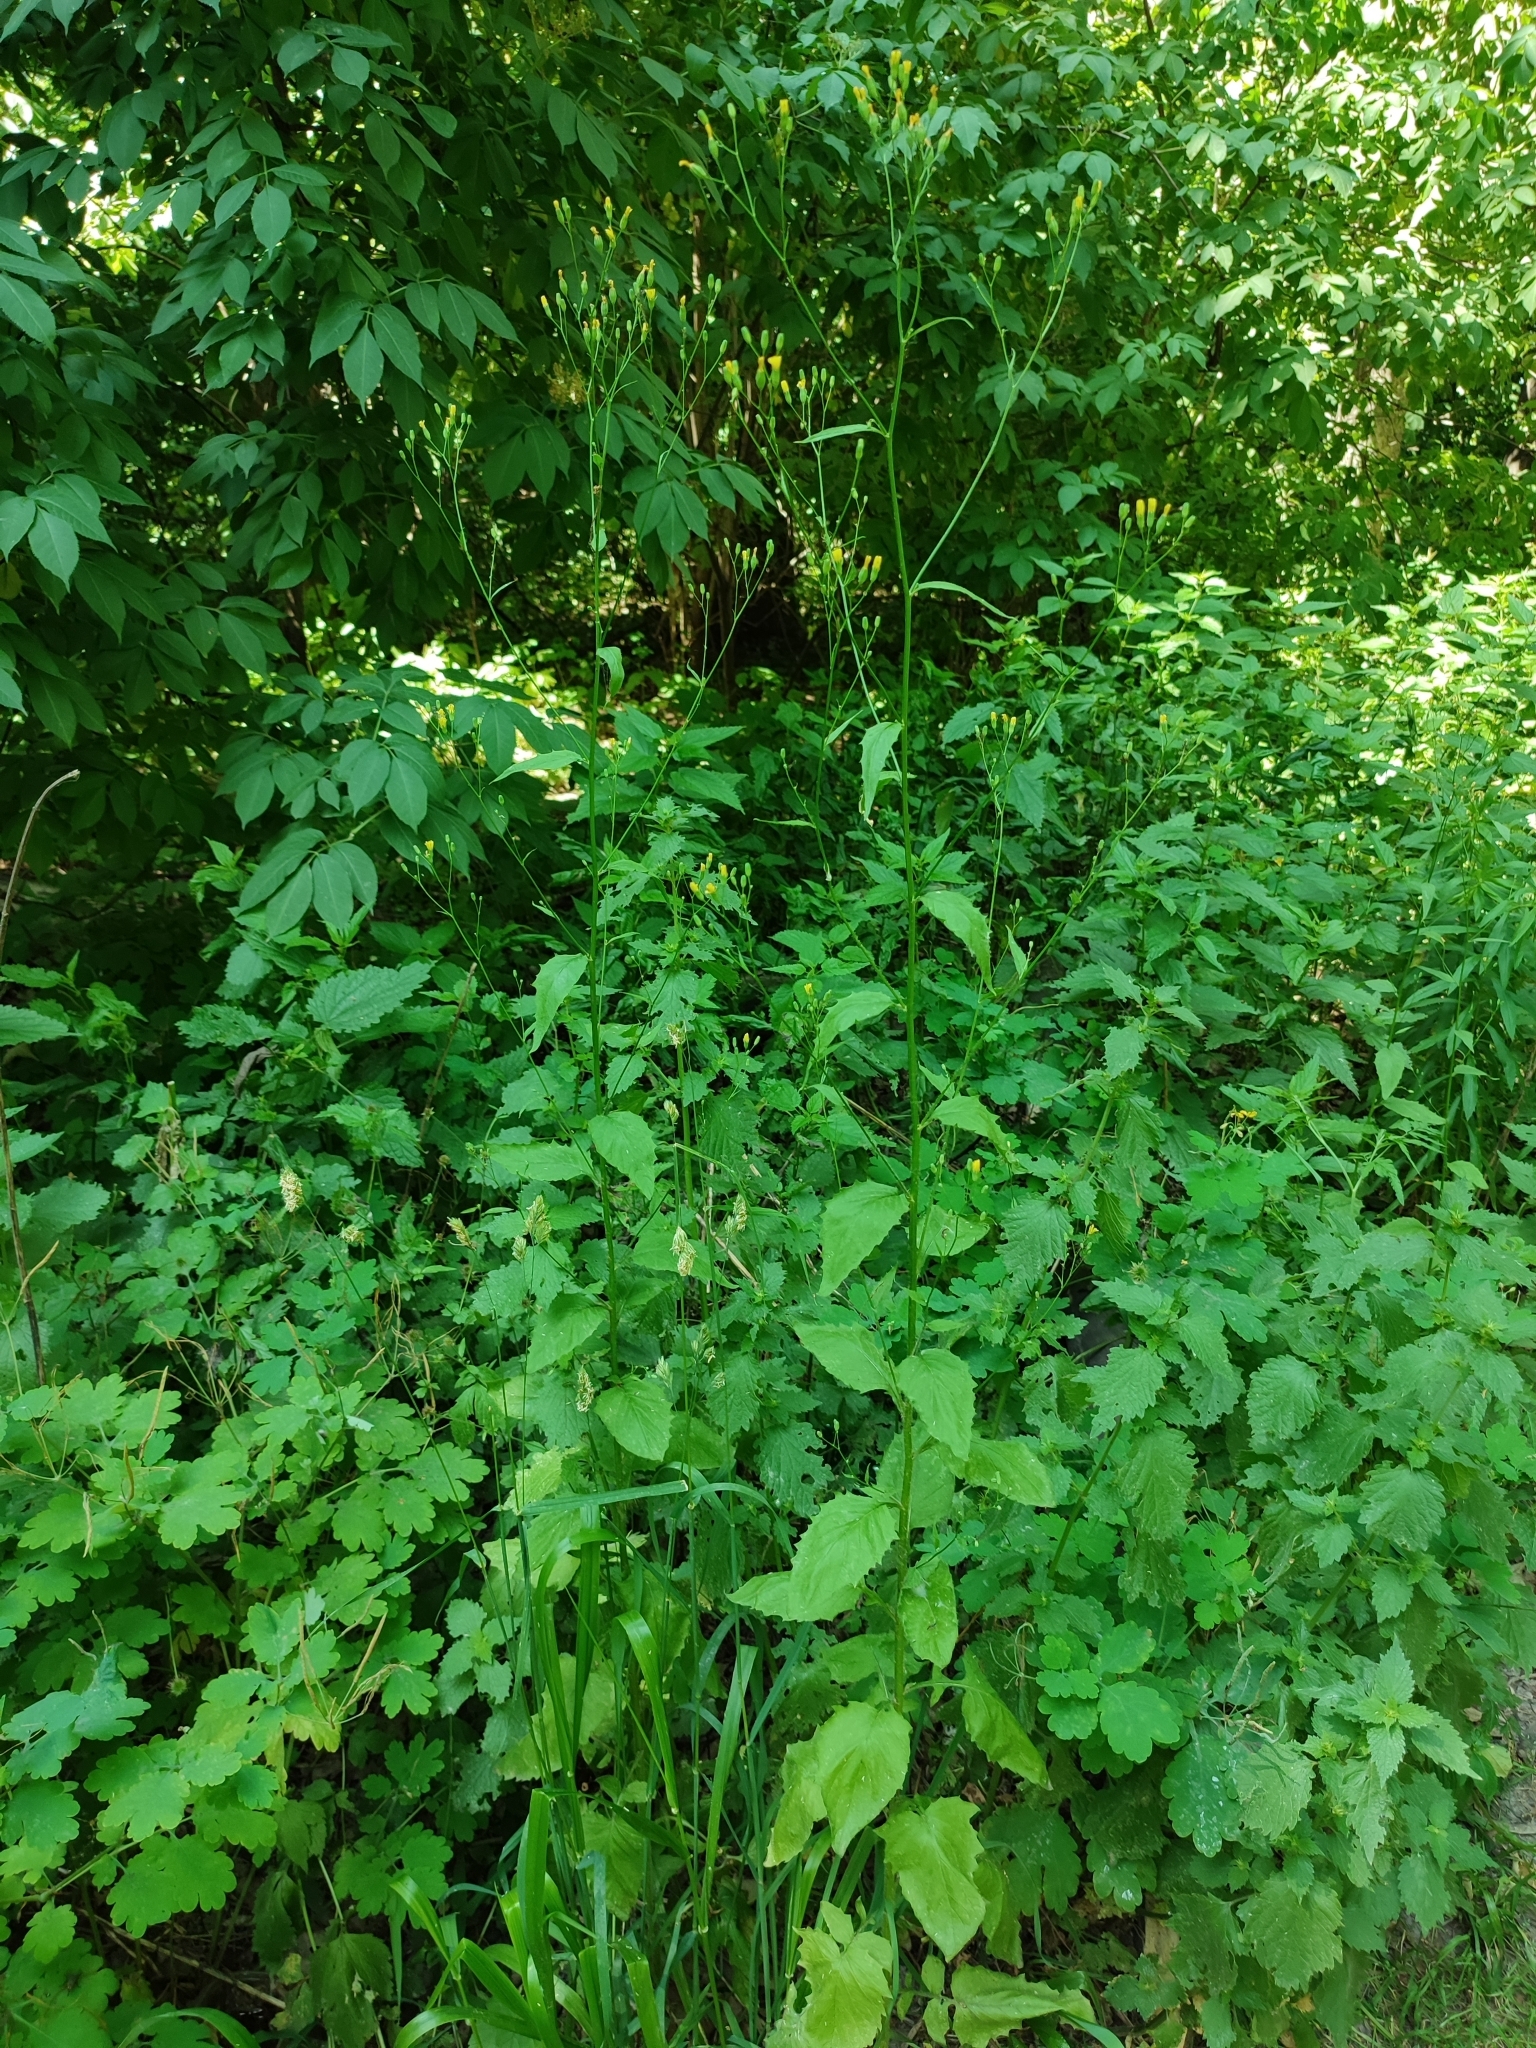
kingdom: Plantae
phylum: Tracheophyta
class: Magnoliopsida
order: Asterales
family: Asteraceae
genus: Lapsana
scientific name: Lapsana communis
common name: Nipplewort
